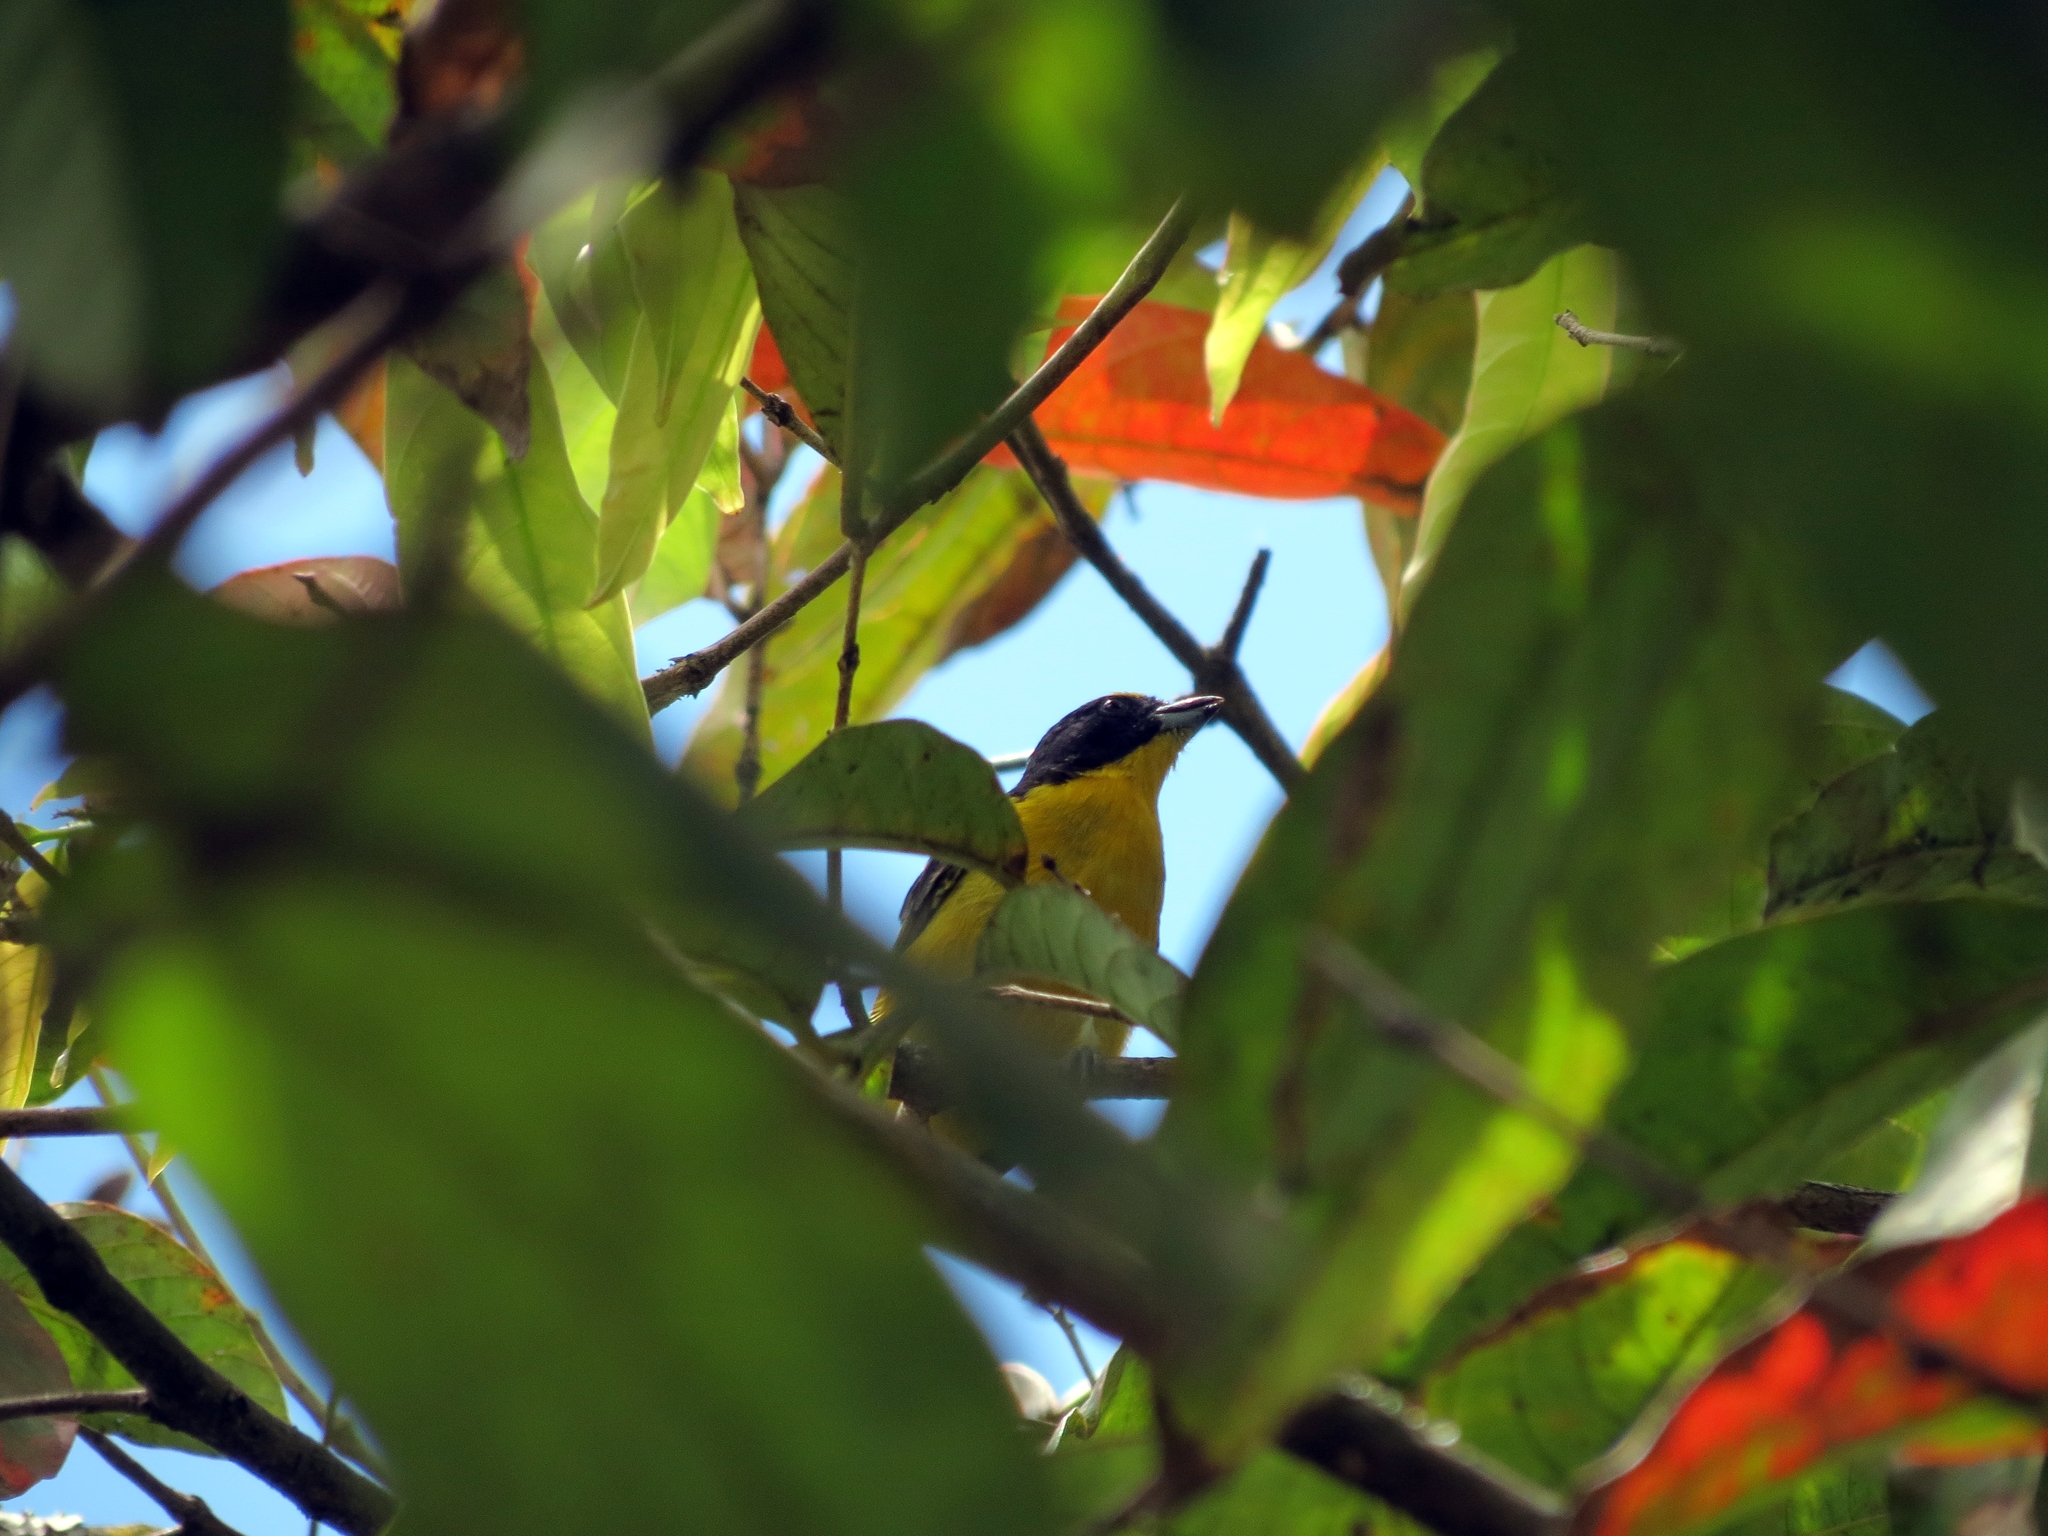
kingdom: Animalia
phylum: Chordata
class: Aves
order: Passeriformes
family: Fringillidae
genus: Euphonia
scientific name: Euphonia laniirostris
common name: Thick-billed euphonia
